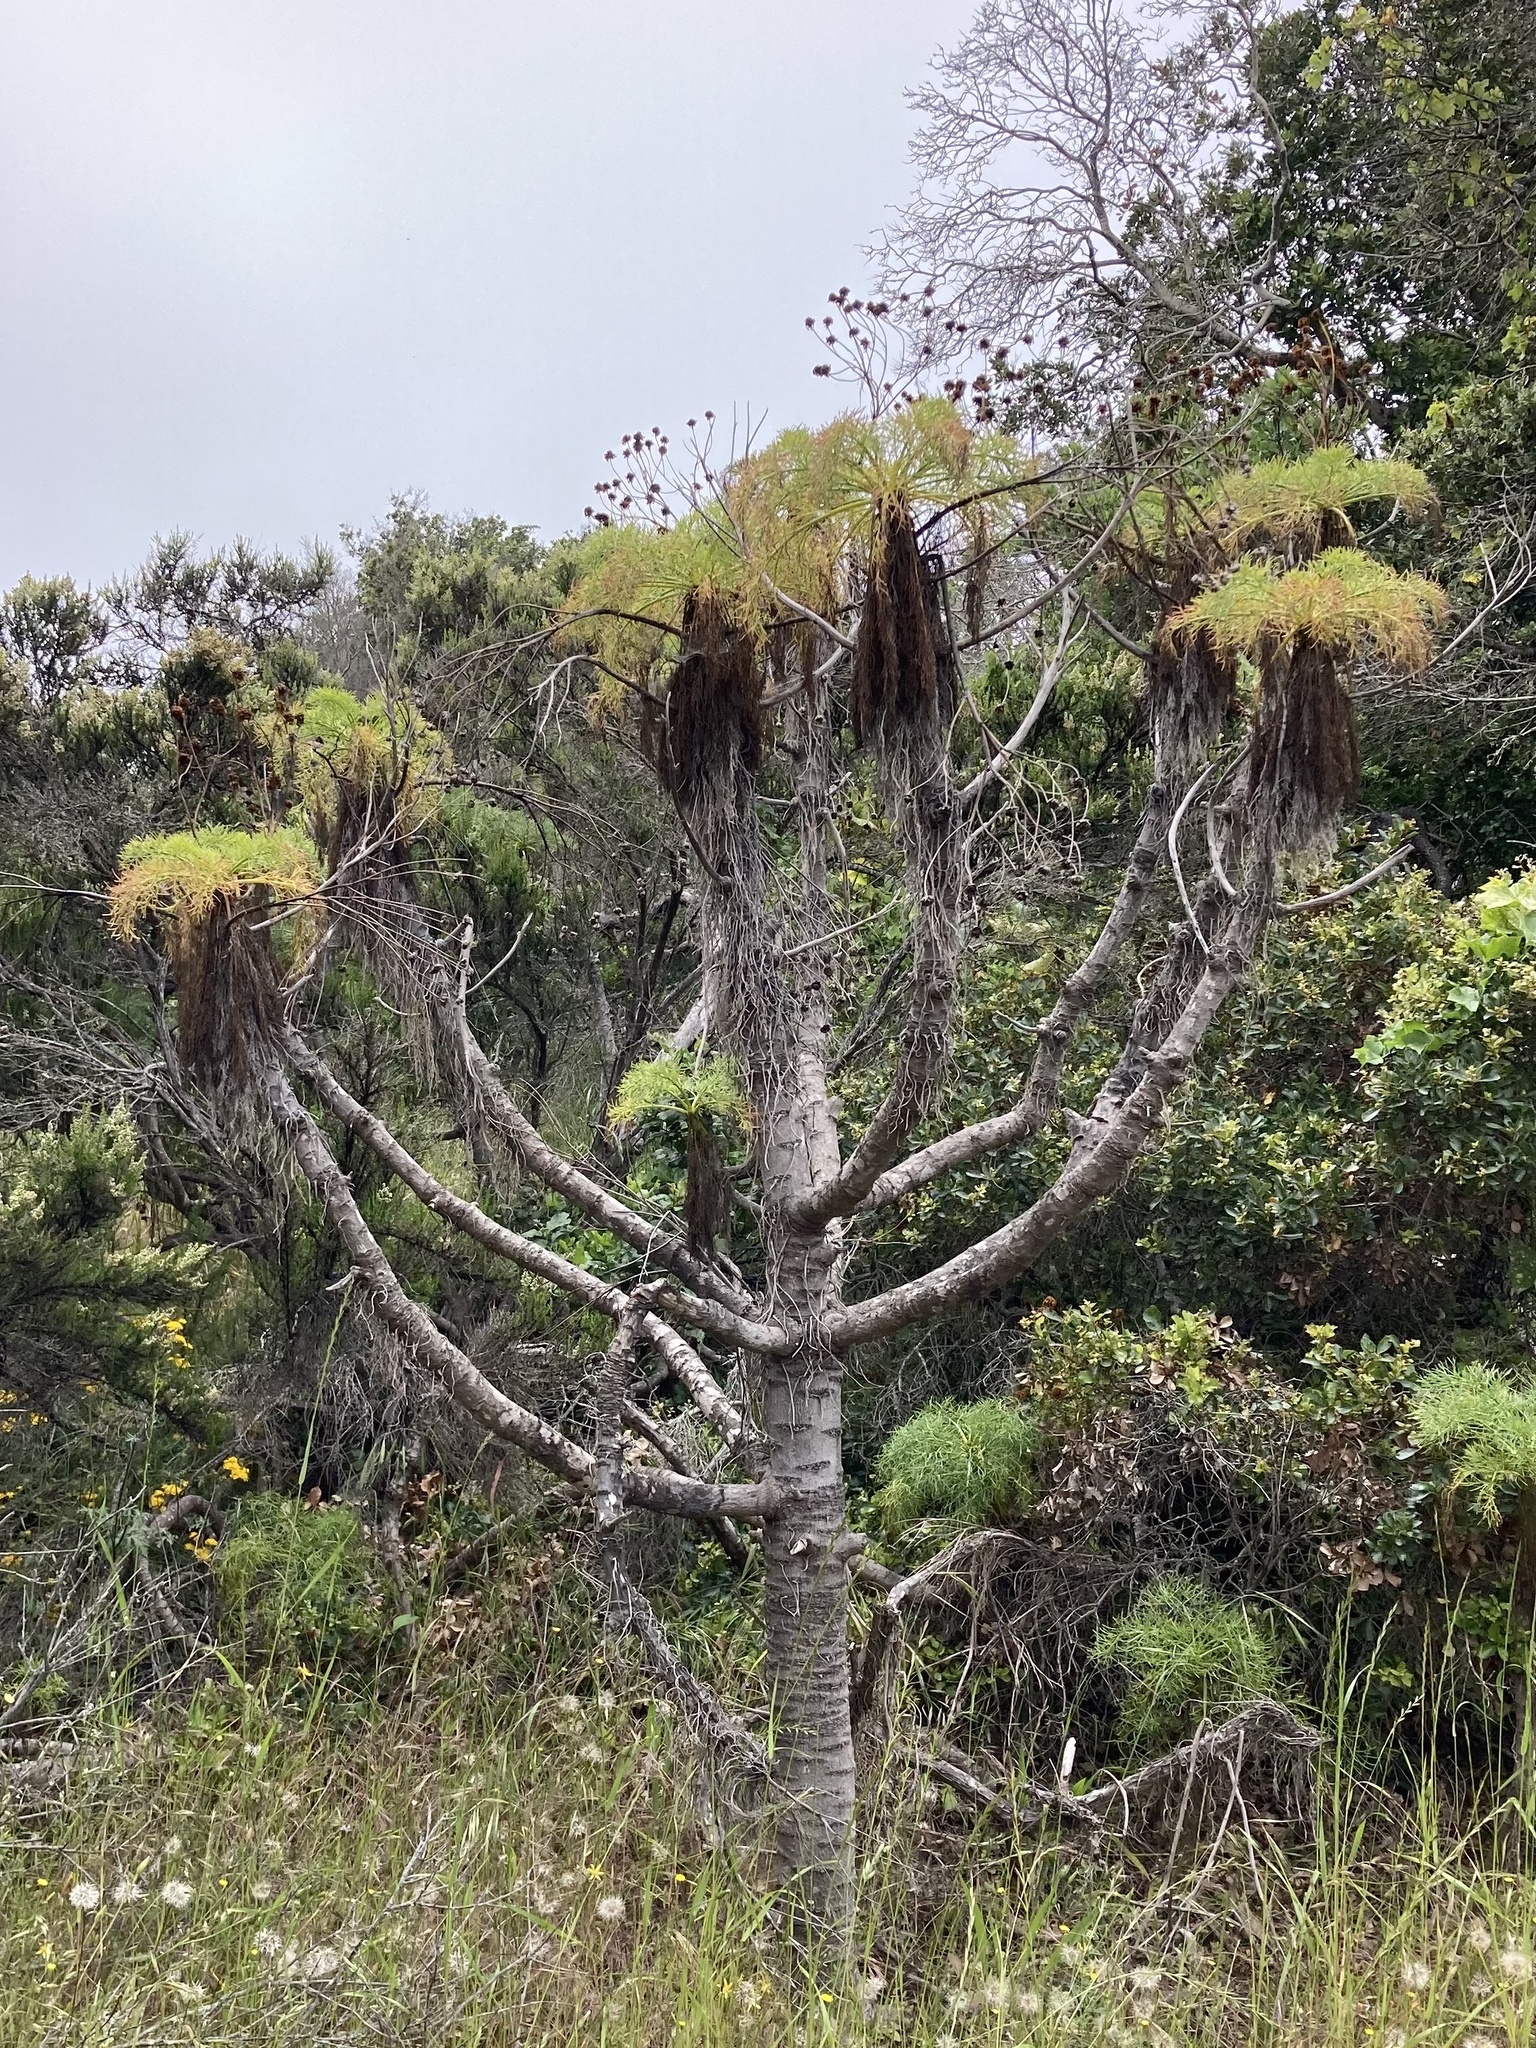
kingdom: Plantae
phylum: Tracheophyta
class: Magnoliopsida
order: Asterales
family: Asteraceae
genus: Coreopsis
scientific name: Coreopsis gigantea
